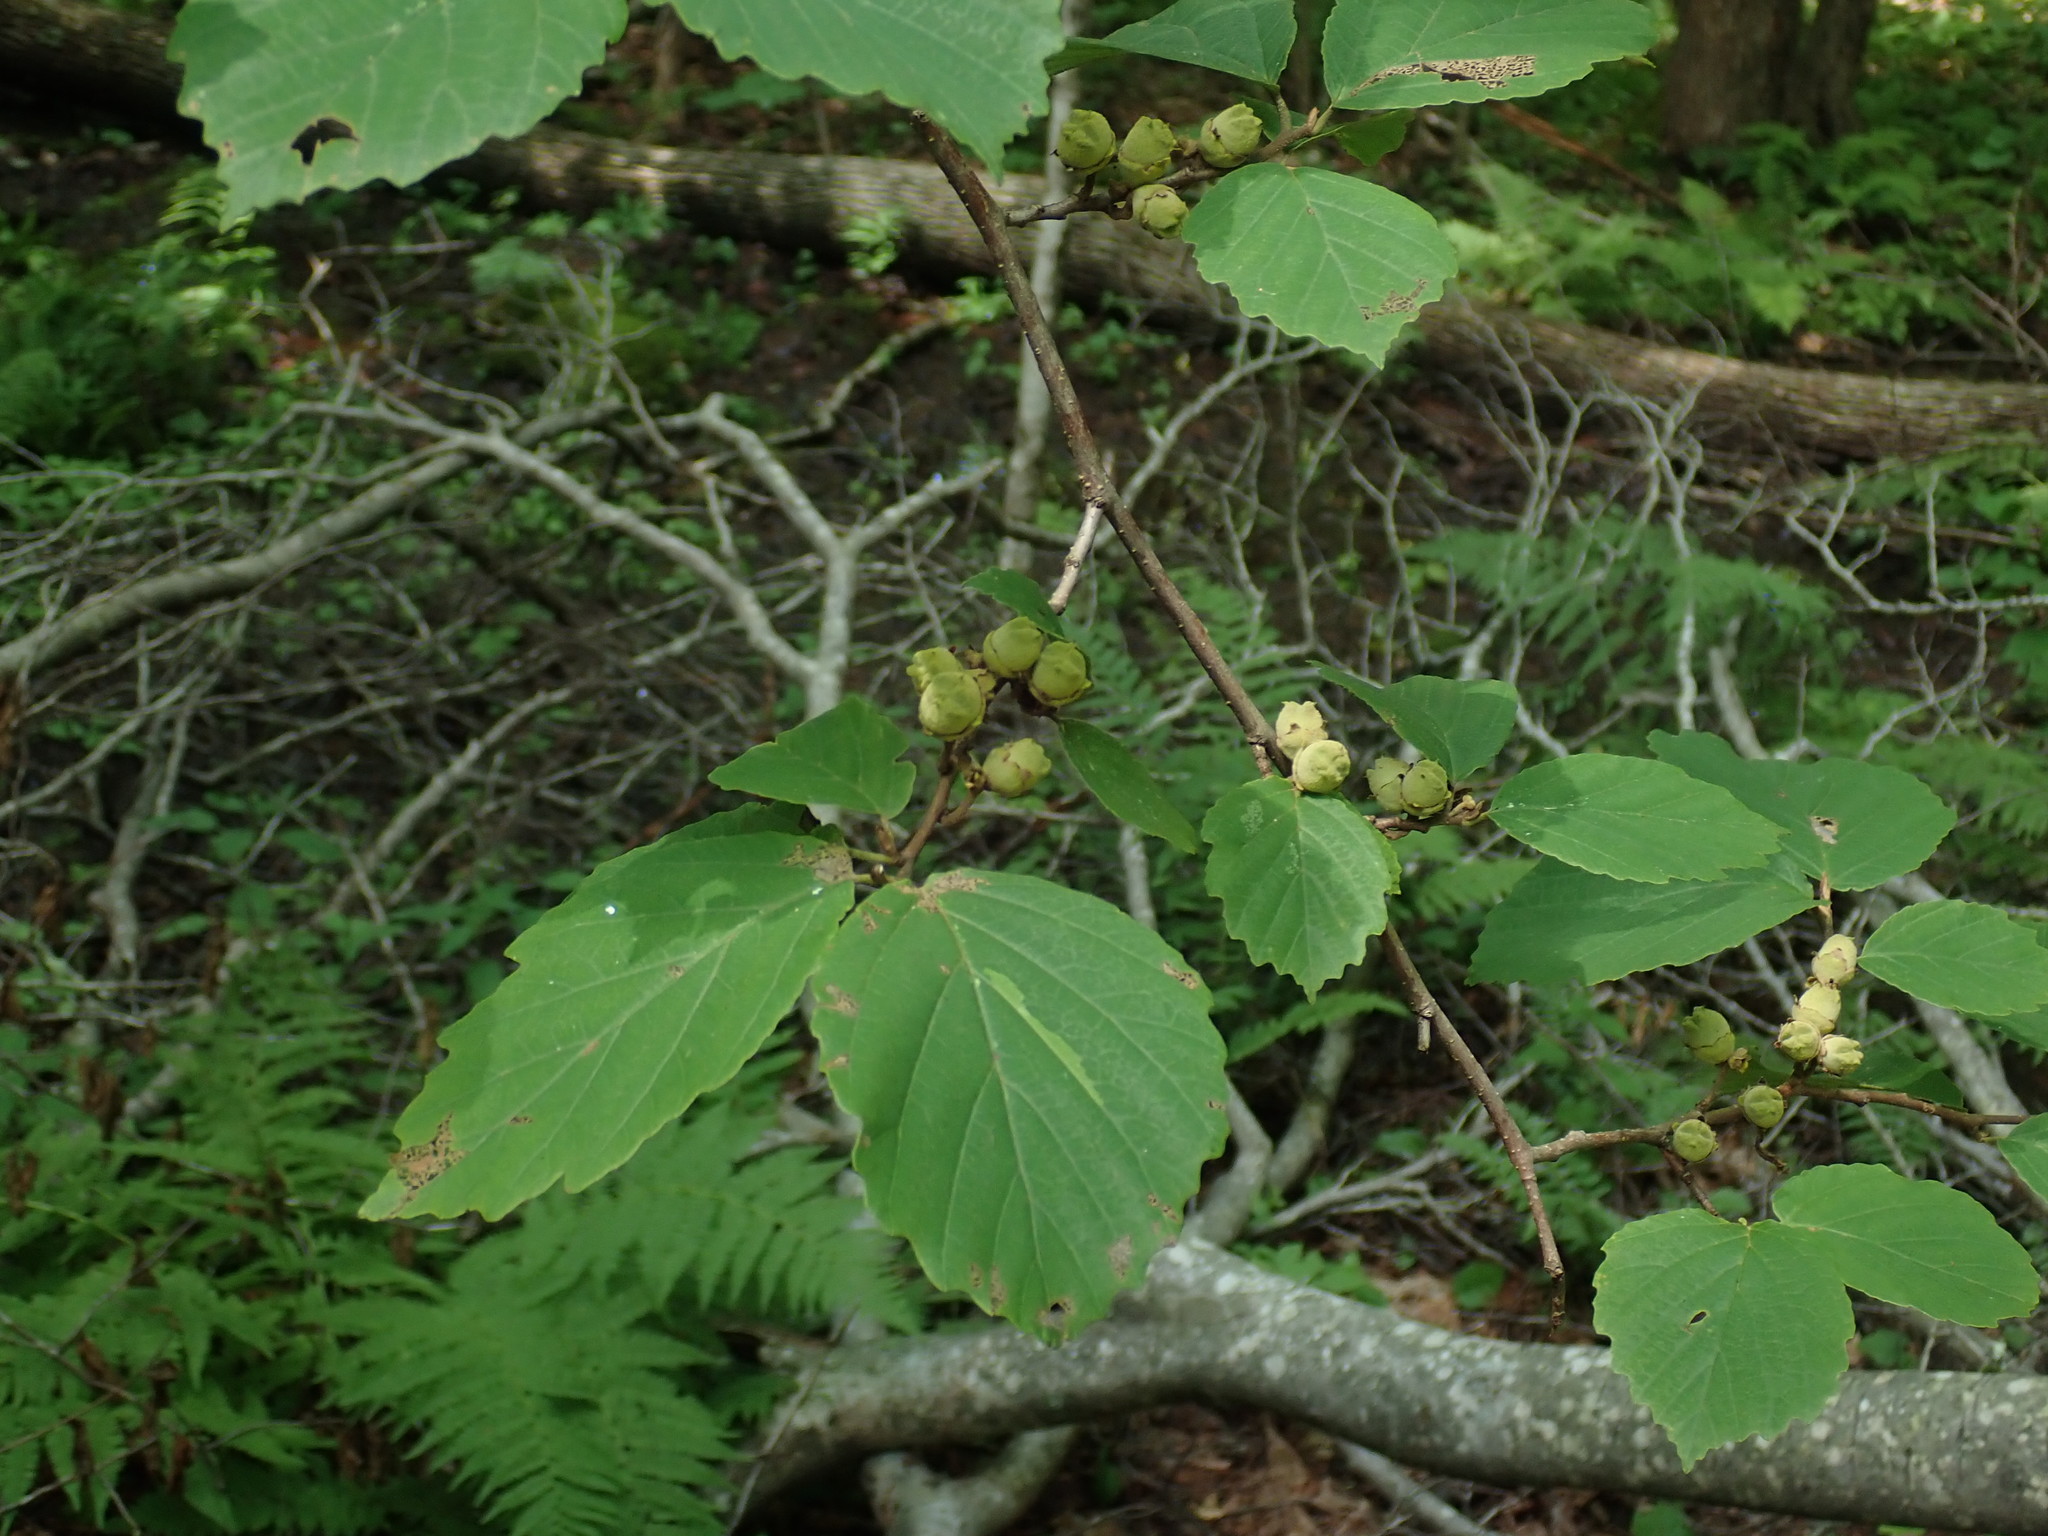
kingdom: Plantae
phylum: Tracheophyta
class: Magnoliopsida
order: Saxifragales
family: Hamamelidaceae
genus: Hamamelis
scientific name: Hamamelis virginiana
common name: Witch-hazel
